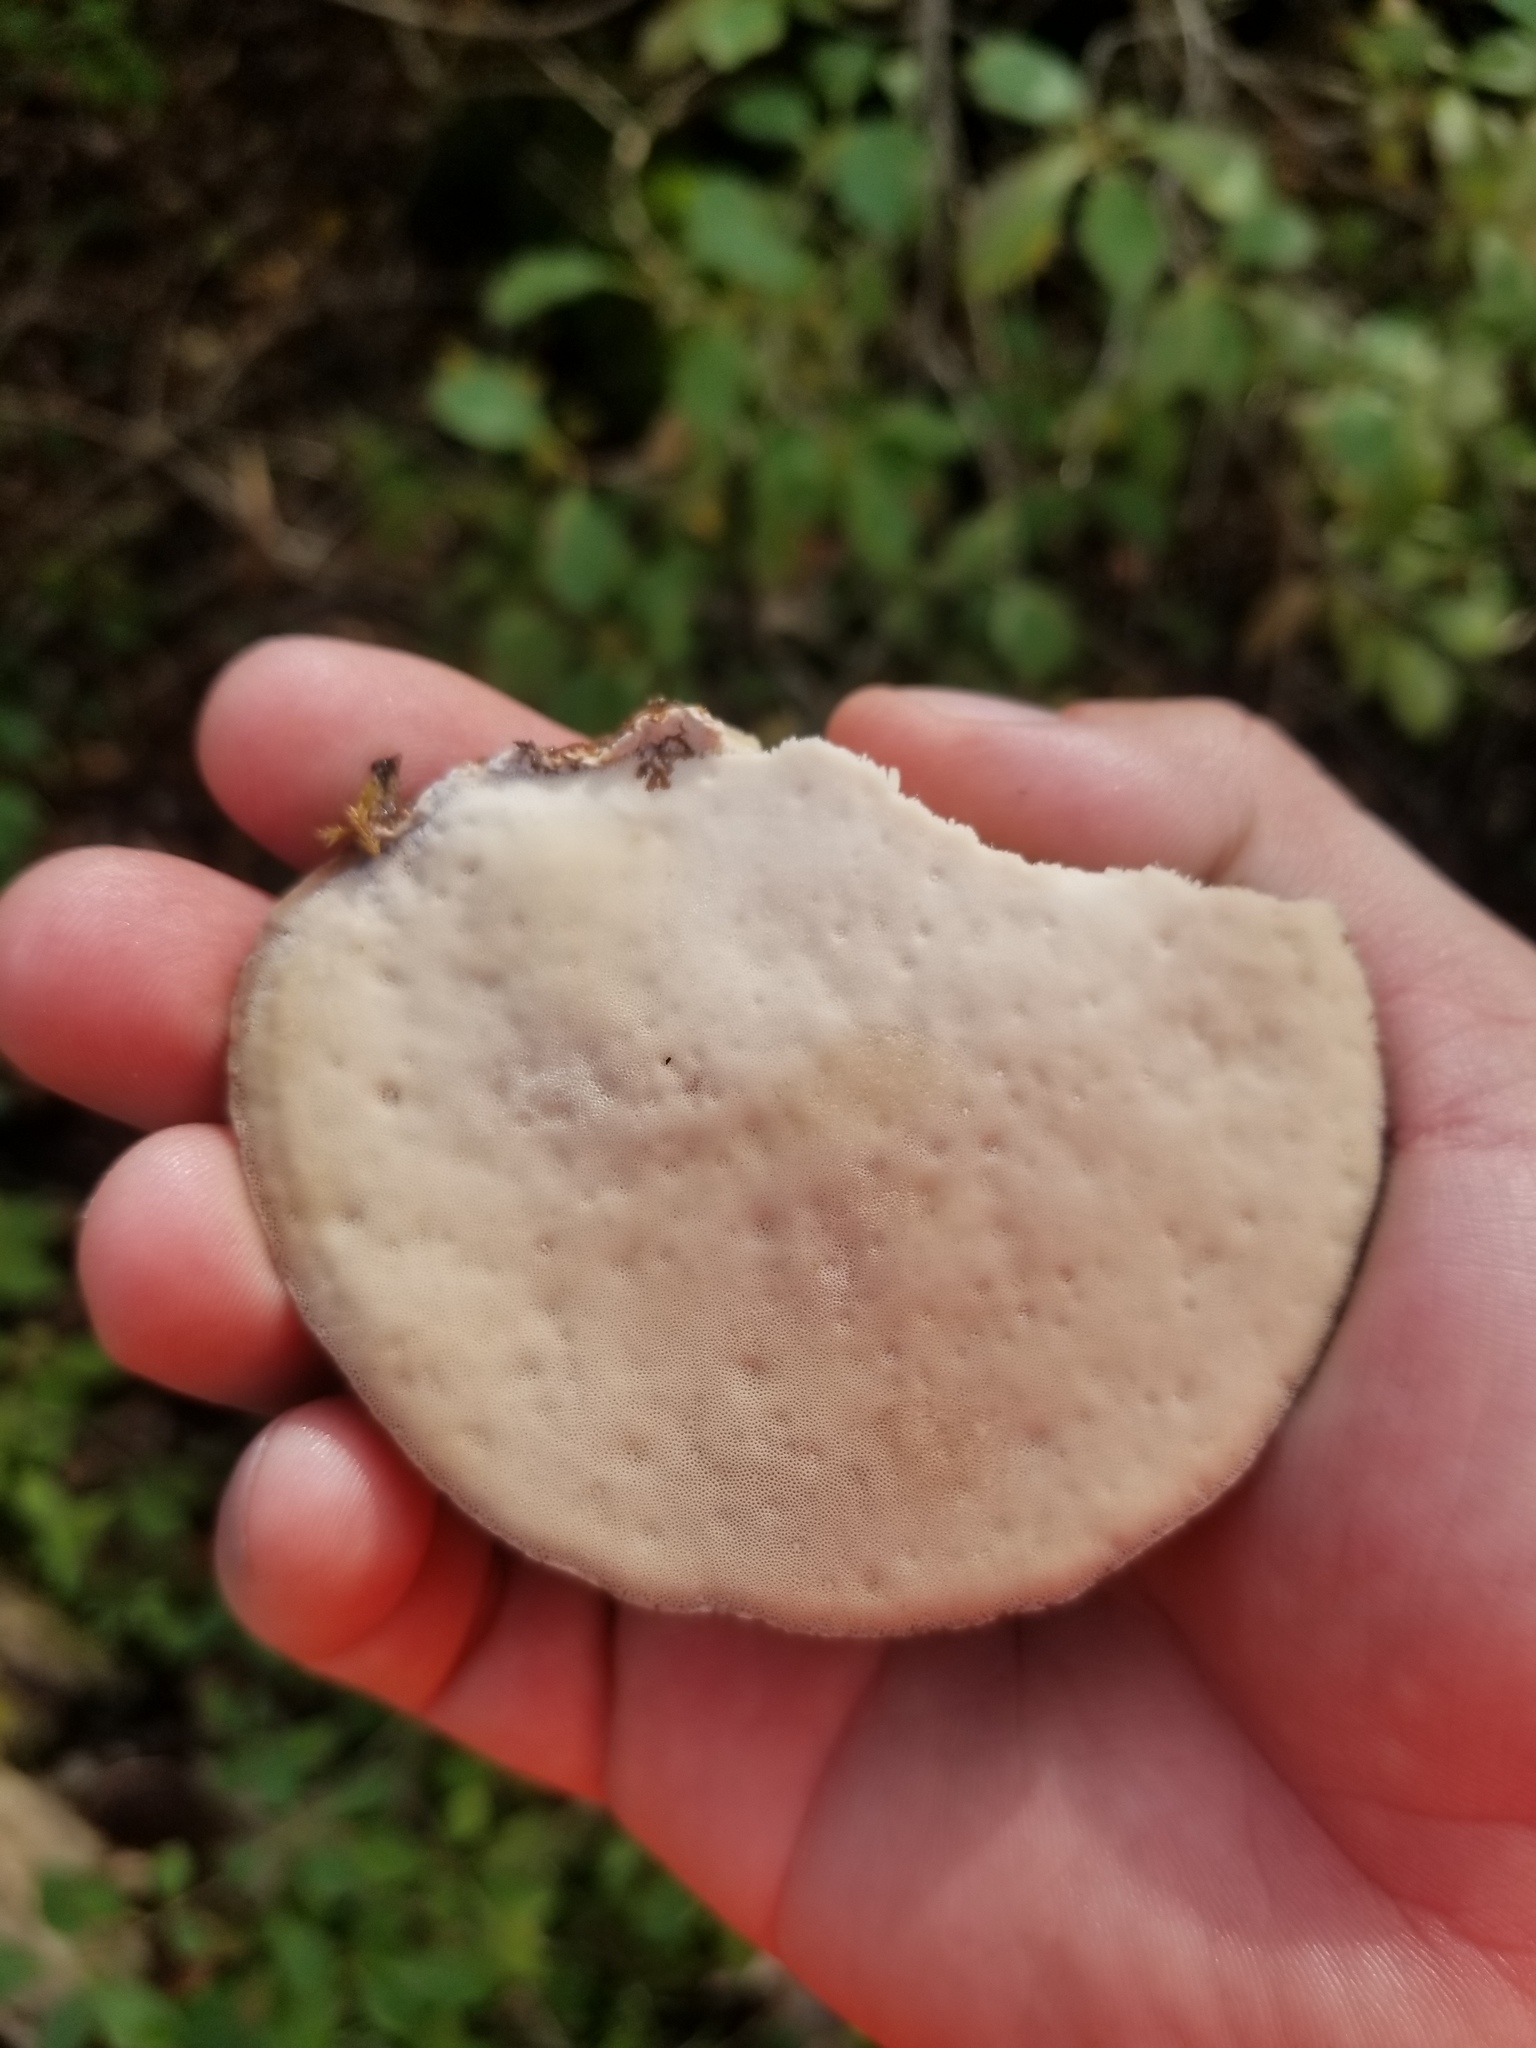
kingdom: Fungi
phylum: Basidiomycota
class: Agaricomycetes
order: Polyporales
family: Ischnodermataceae
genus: Ischnoderma
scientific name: Ischnoderma resinosum
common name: Resinous polypore
